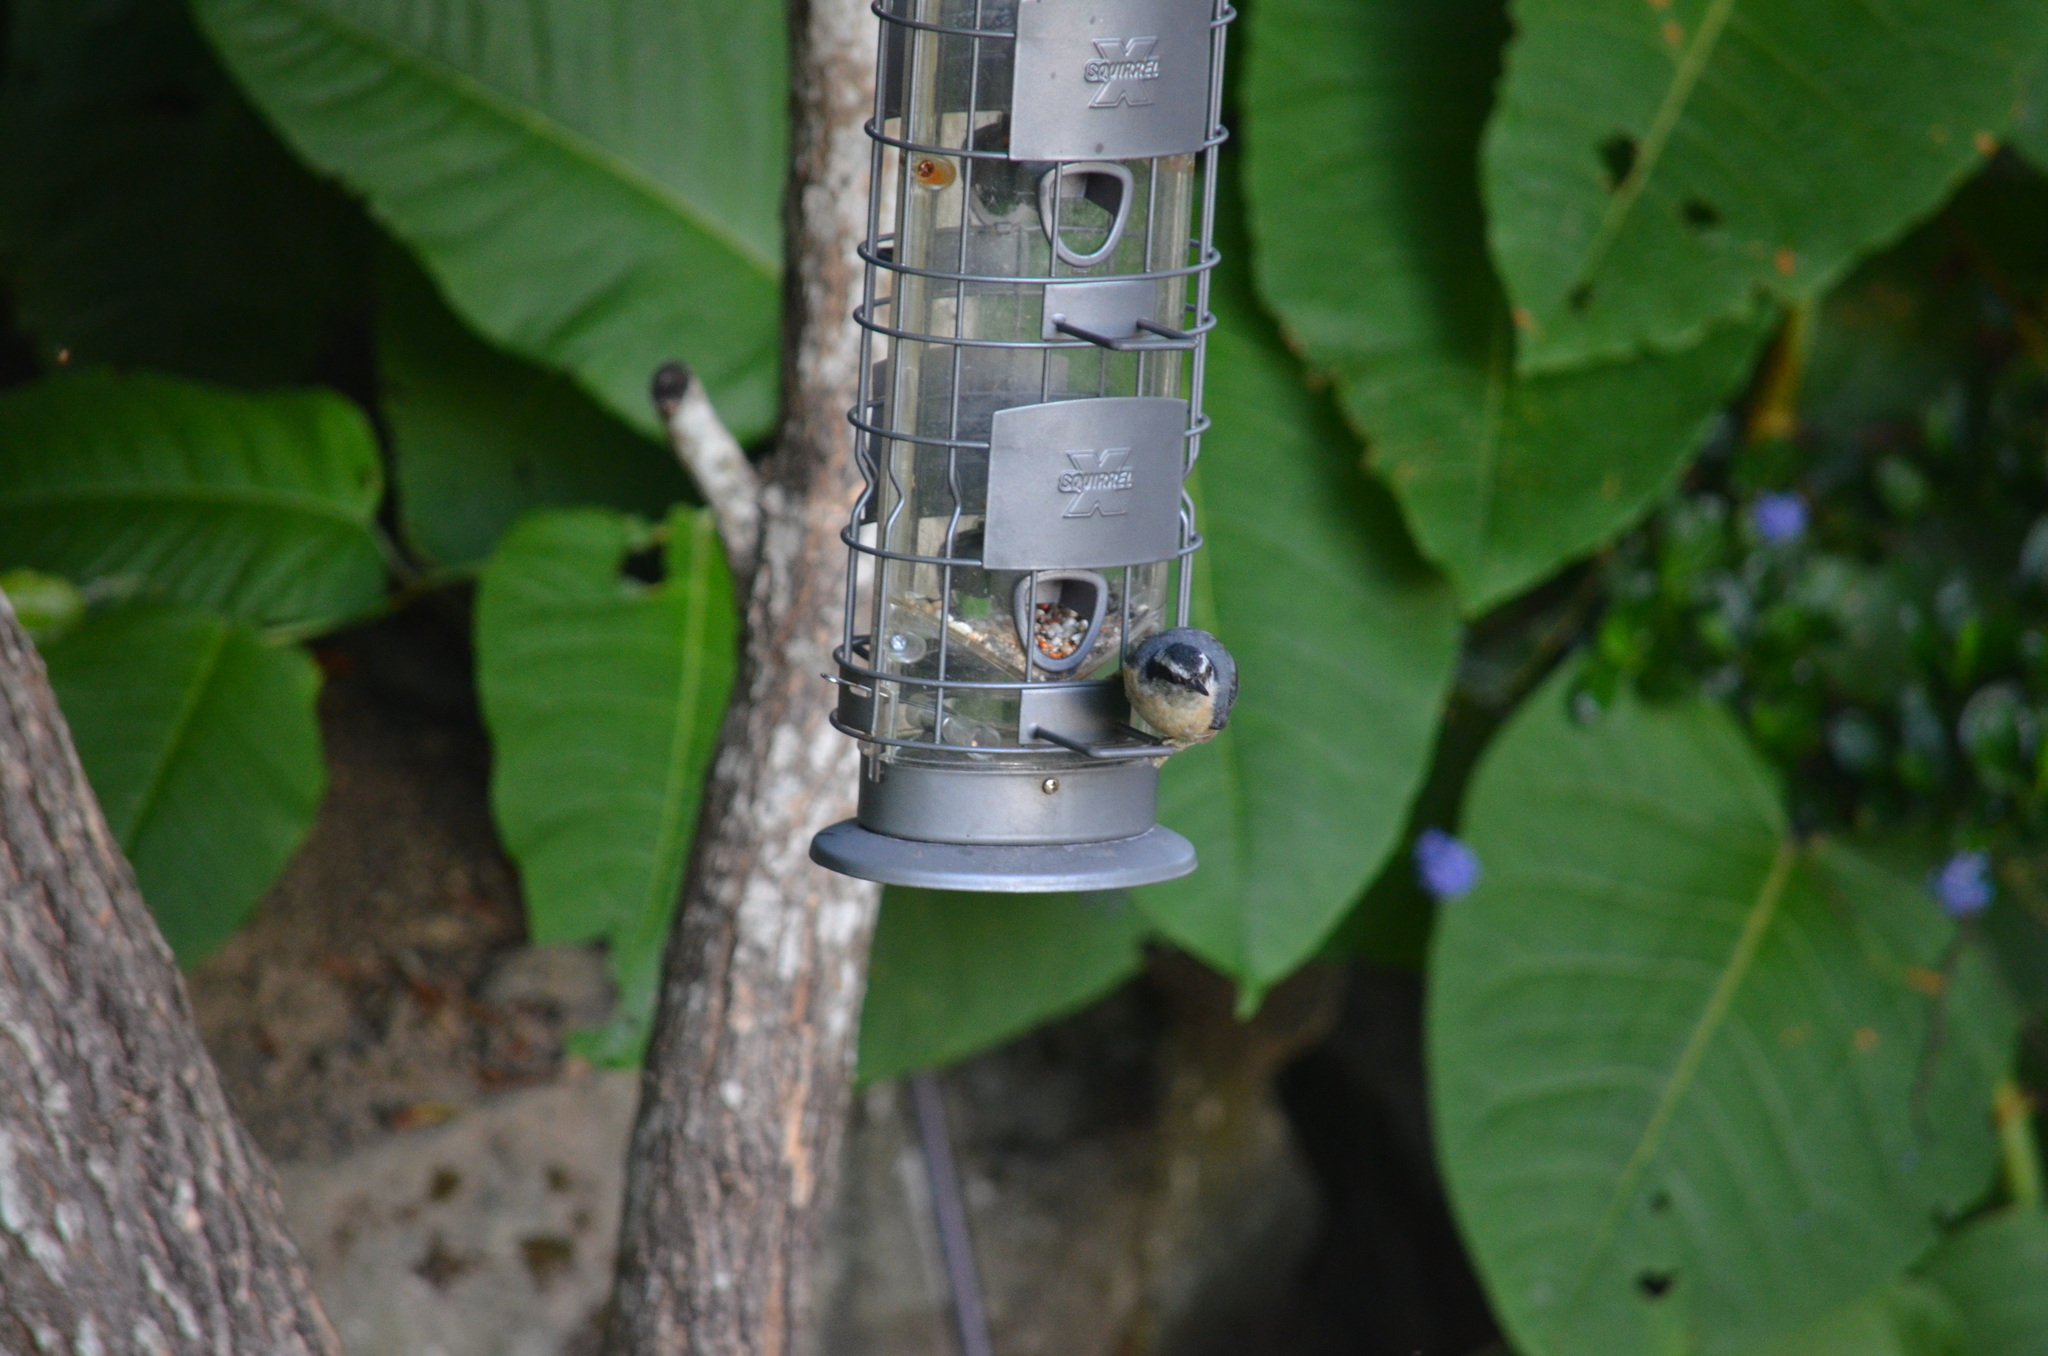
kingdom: Animalia
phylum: Chordata
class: Aves
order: Passeriformes
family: Sittidae
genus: Sitta
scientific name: Sitta canadensis
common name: Red-breasted nuthatch
